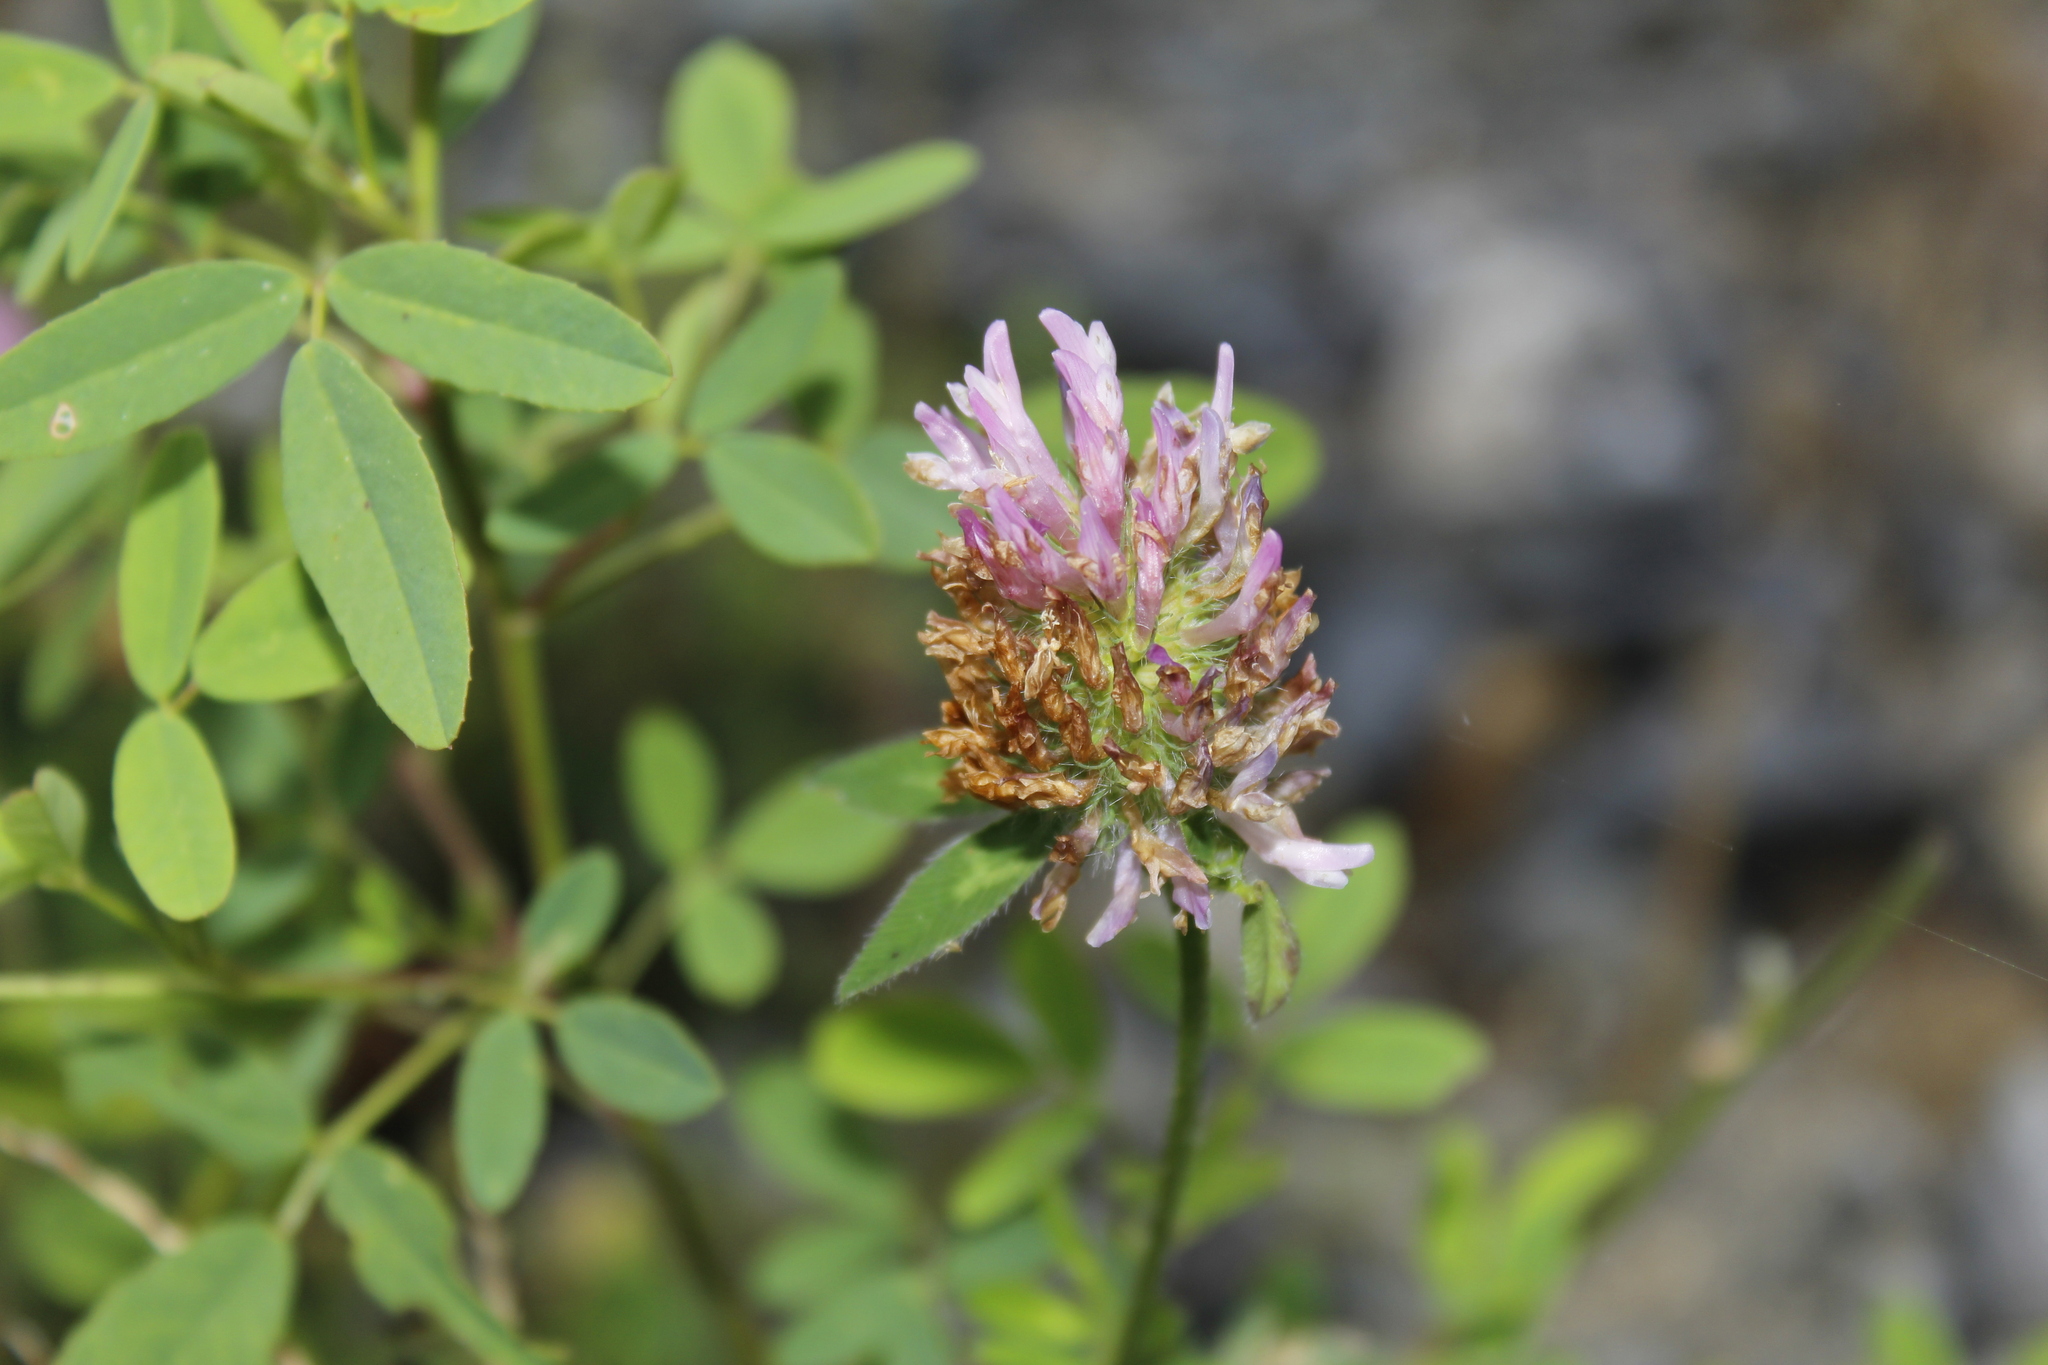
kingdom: Plantae
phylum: Tracheophyta
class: Magnoliopsida
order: Fabales
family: Fabaceae
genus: Trifolium
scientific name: Trifolium pratense
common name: Red clover
